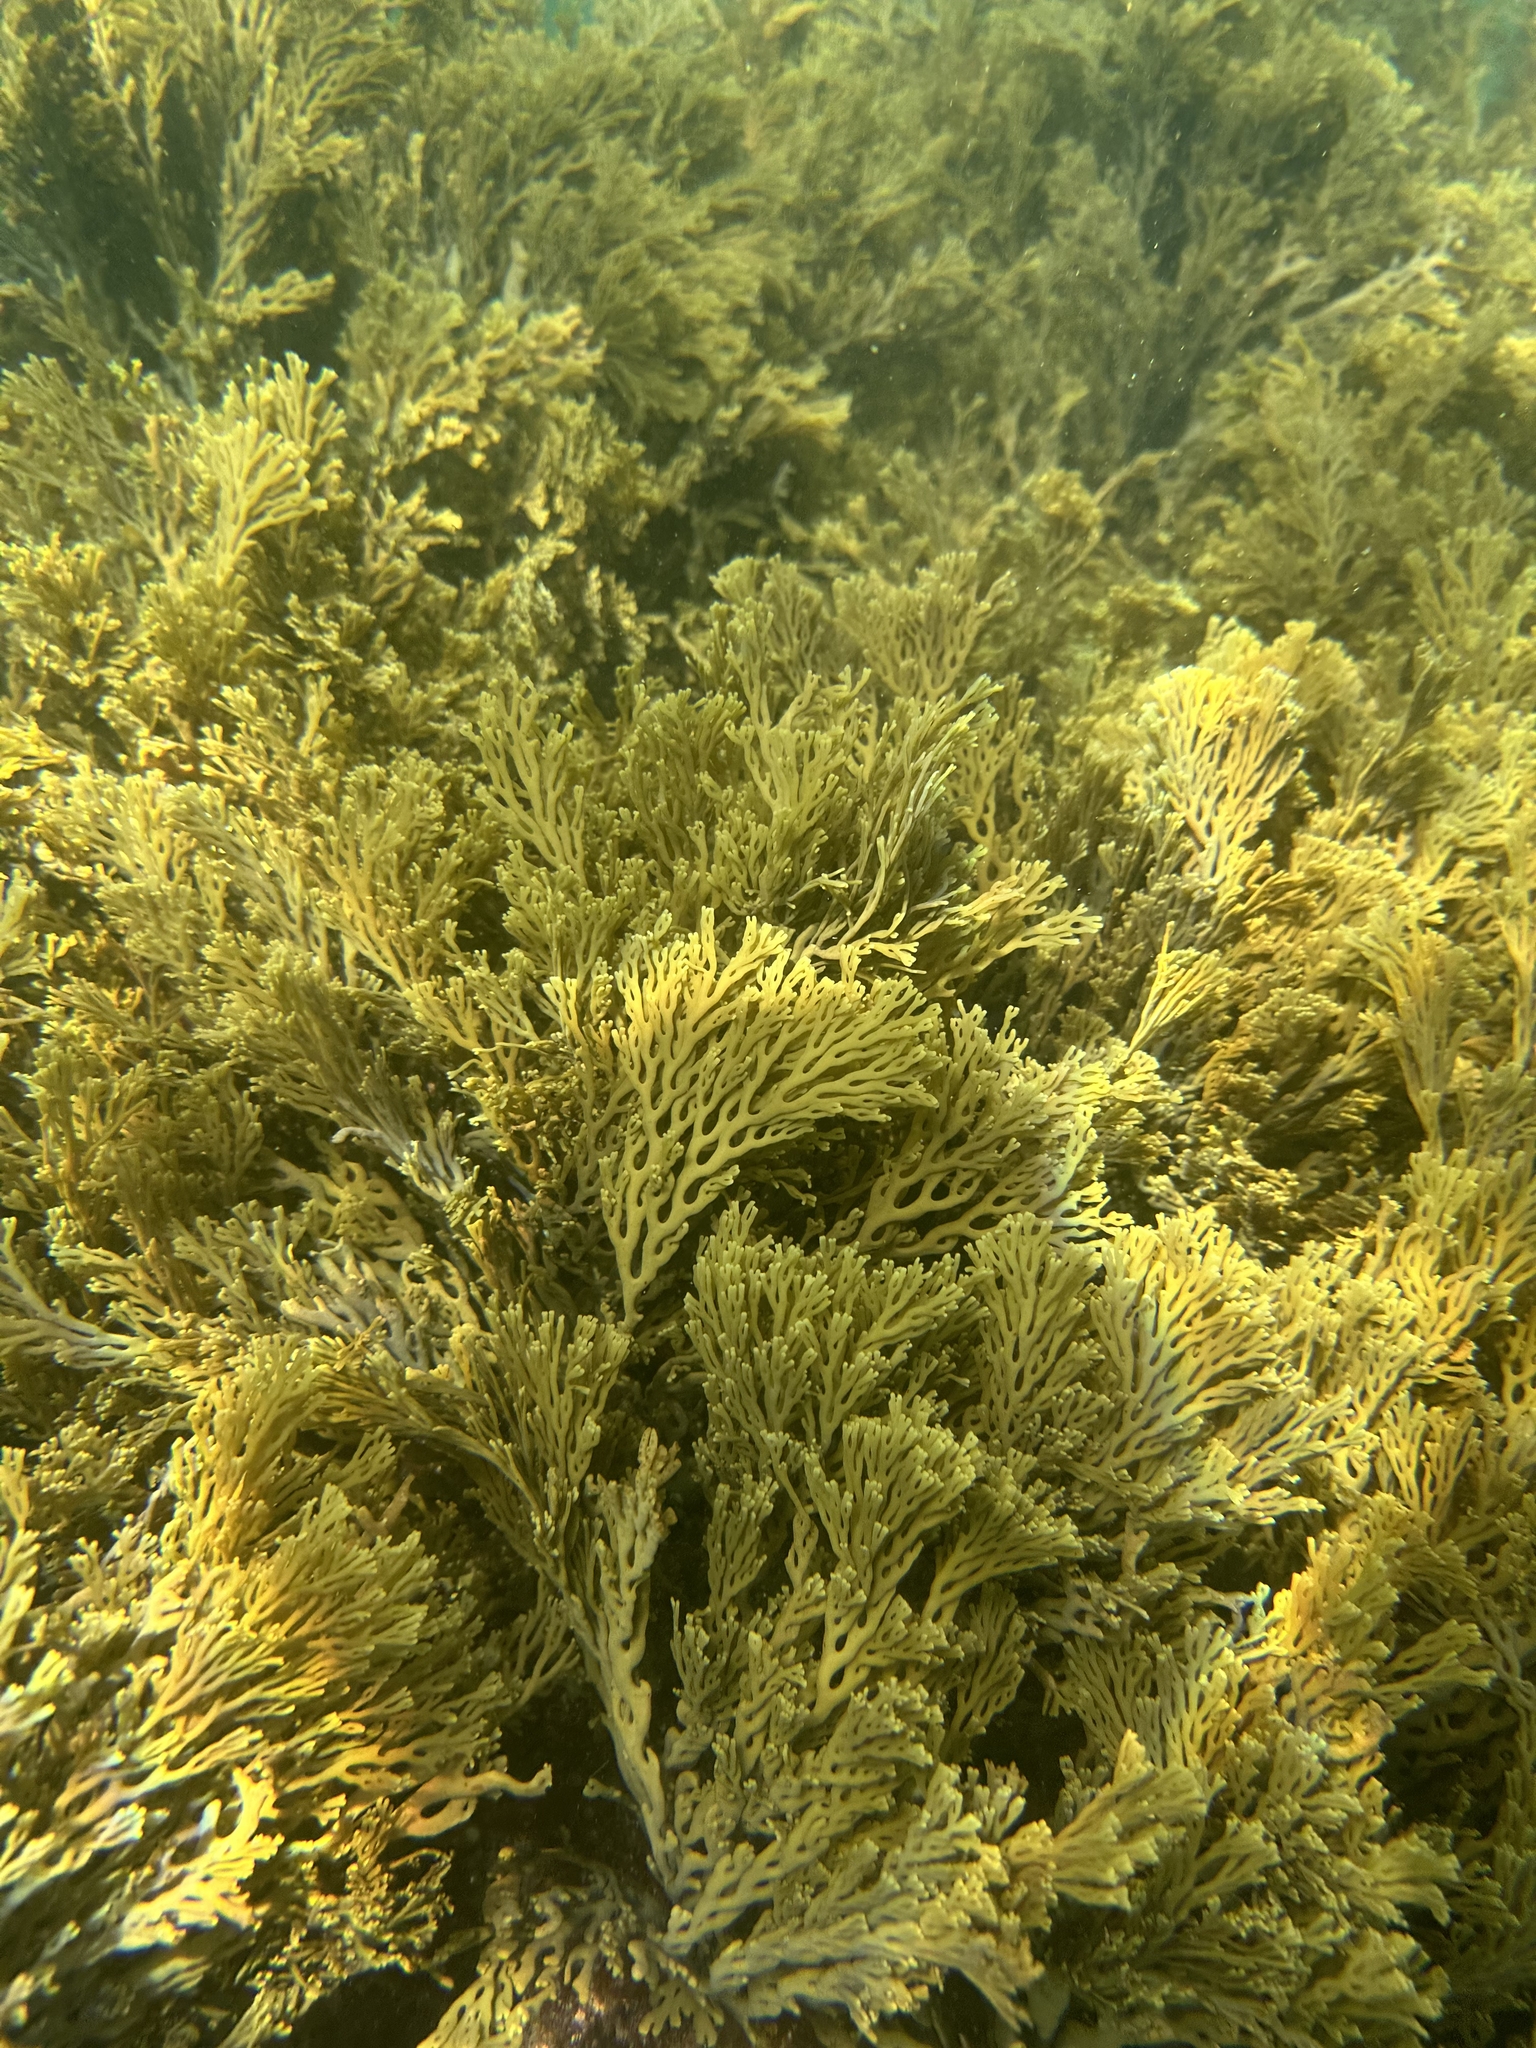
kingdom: Chromista
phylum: Ochrophyta
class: Phaeophyceae
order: Fucales
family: Xiphophoraceae
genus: Xiphophora
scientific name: Xiphophora chondrophylla
